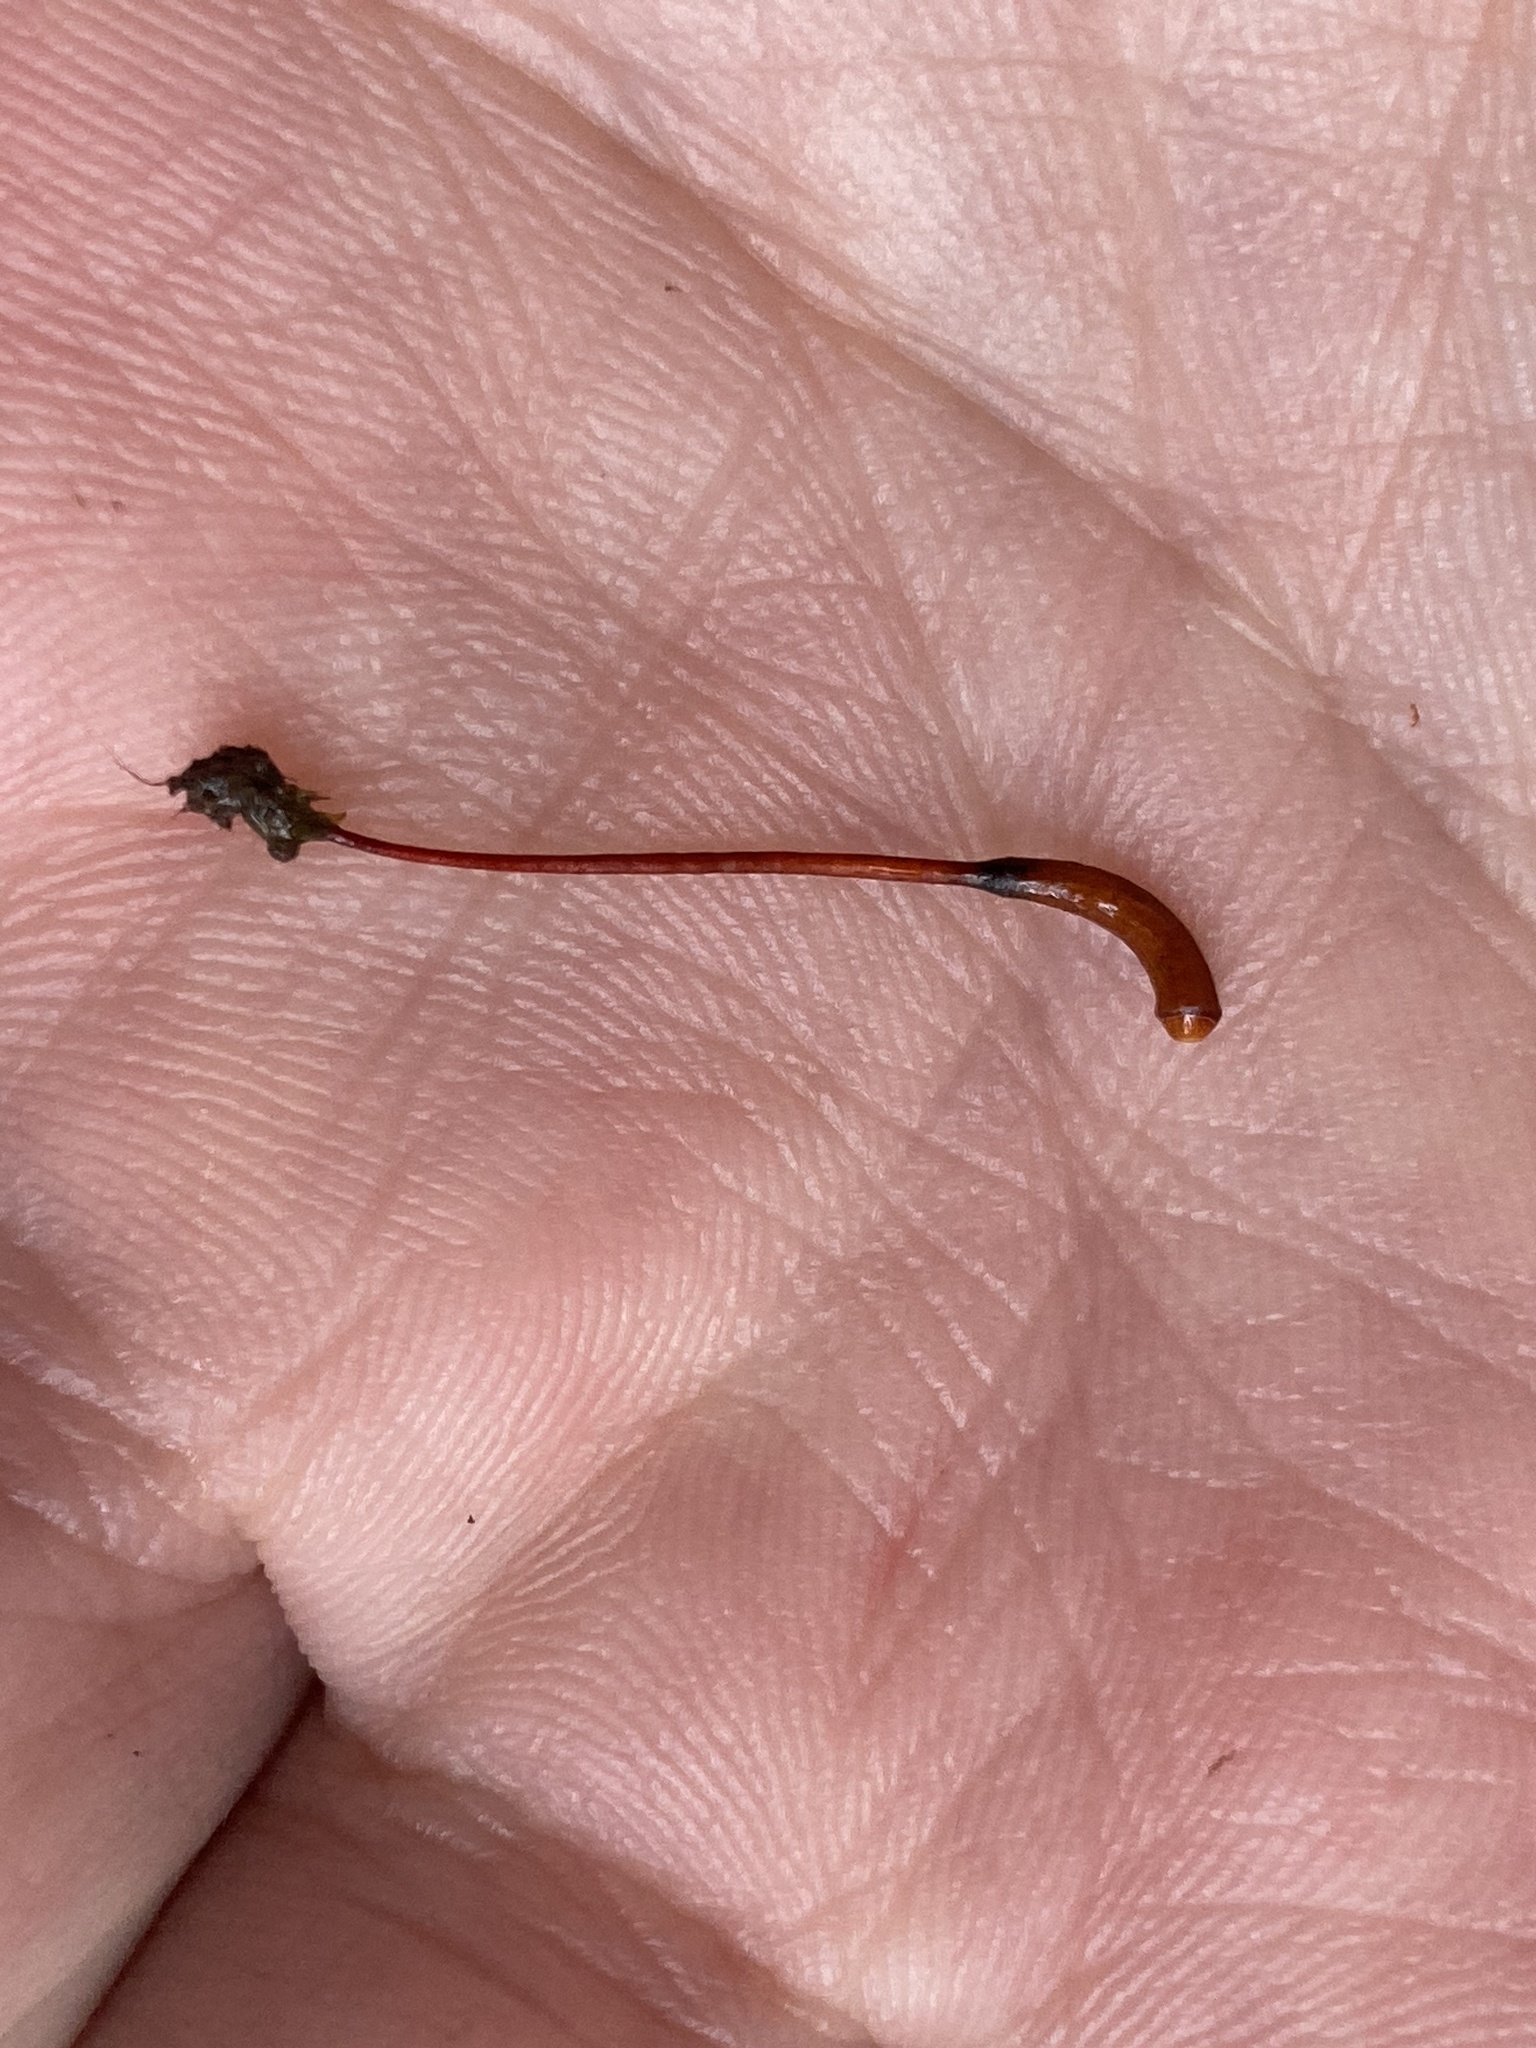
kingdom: Plantae
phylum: Bryophyta
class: Bryopsida
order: Hypnodendrales
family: Racopilaceae
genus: Racopilum
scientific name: Racopilum robustum
